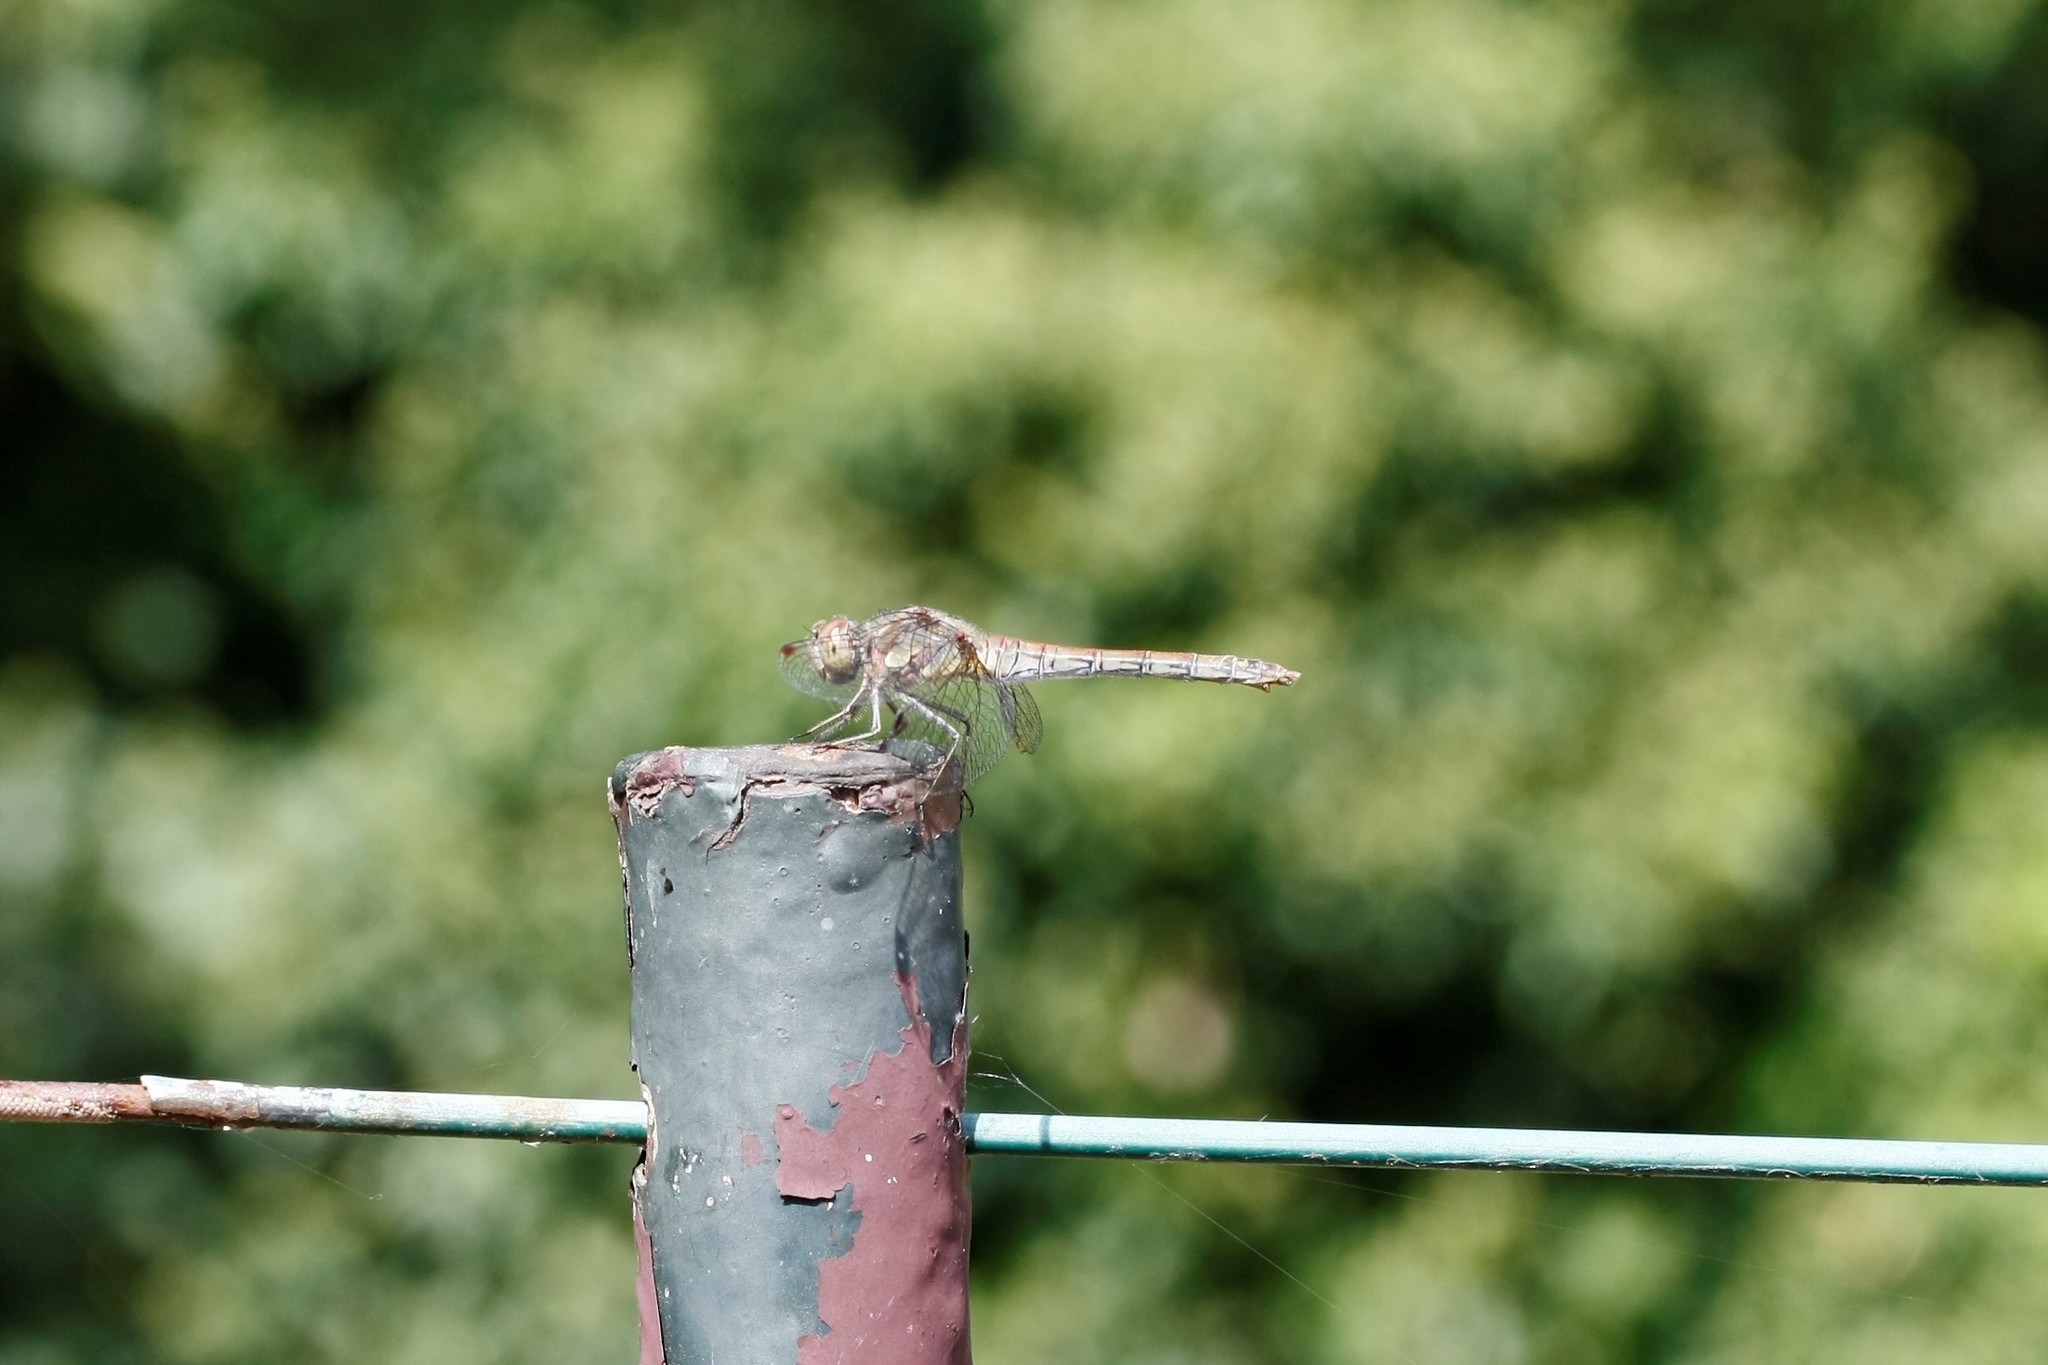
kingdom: Animalia
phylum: Arthropoda
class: Insecta
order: Odonata
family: Libellulidae
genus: Sympetrum
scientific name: Sympetrum striolatum
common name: Common darter
